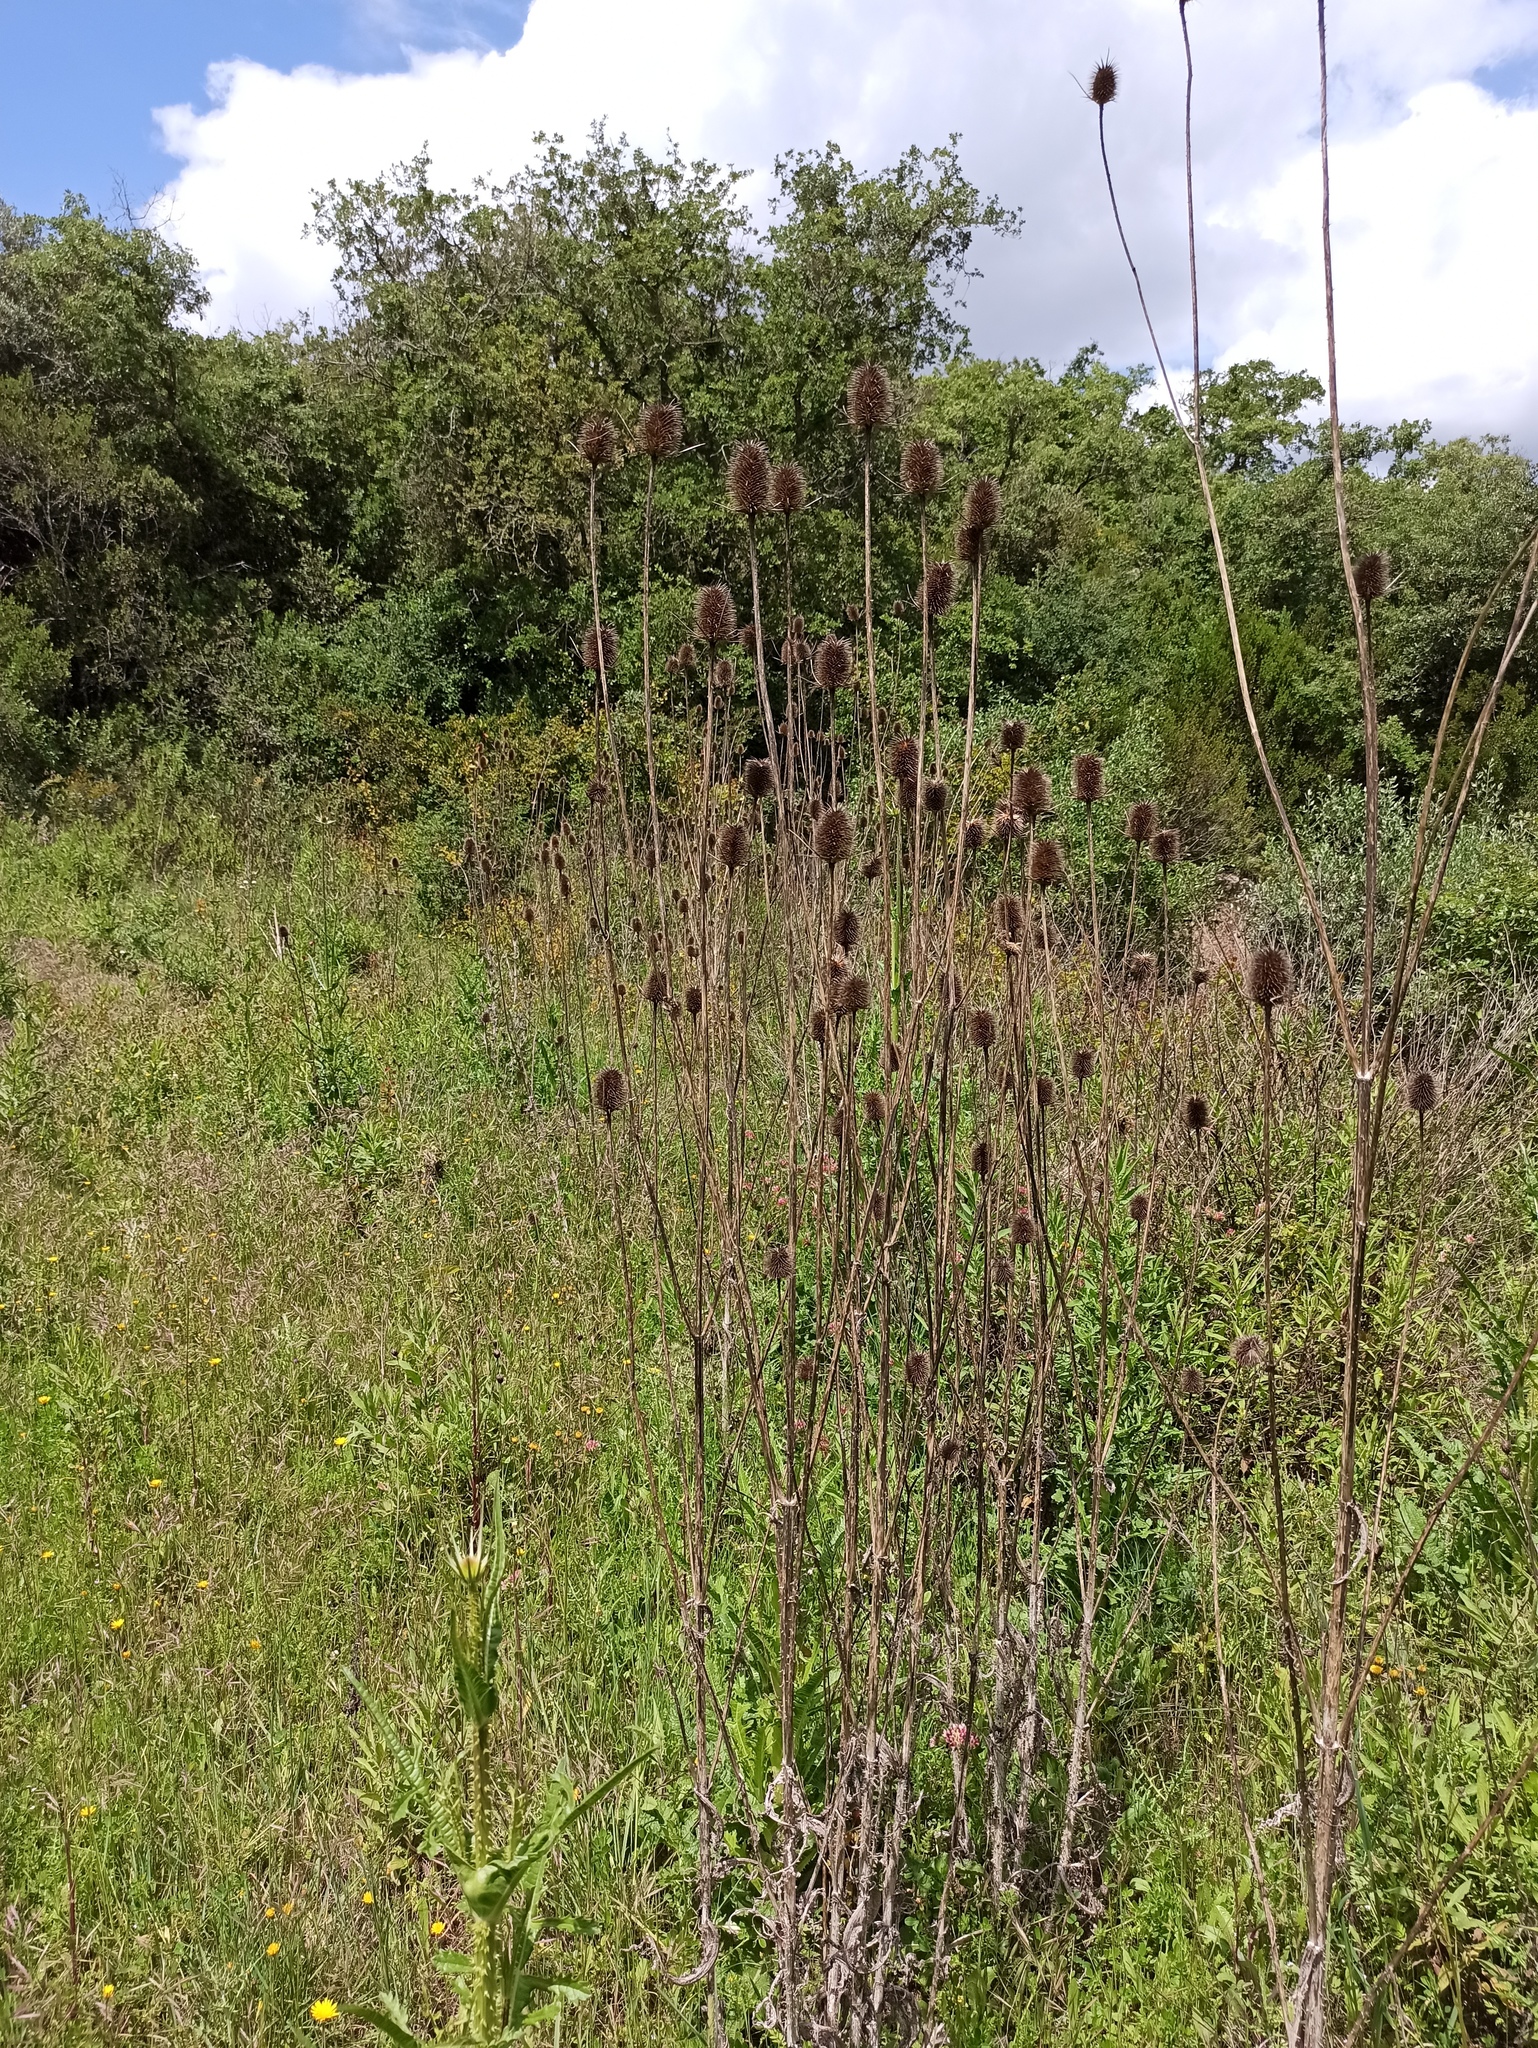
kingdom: Plantae
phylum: Tracheophyta
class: Magnoliopsida
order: Dipsacales
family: Caprifoliaceae
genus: Dipsacus
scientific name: Dipsacus comosus
